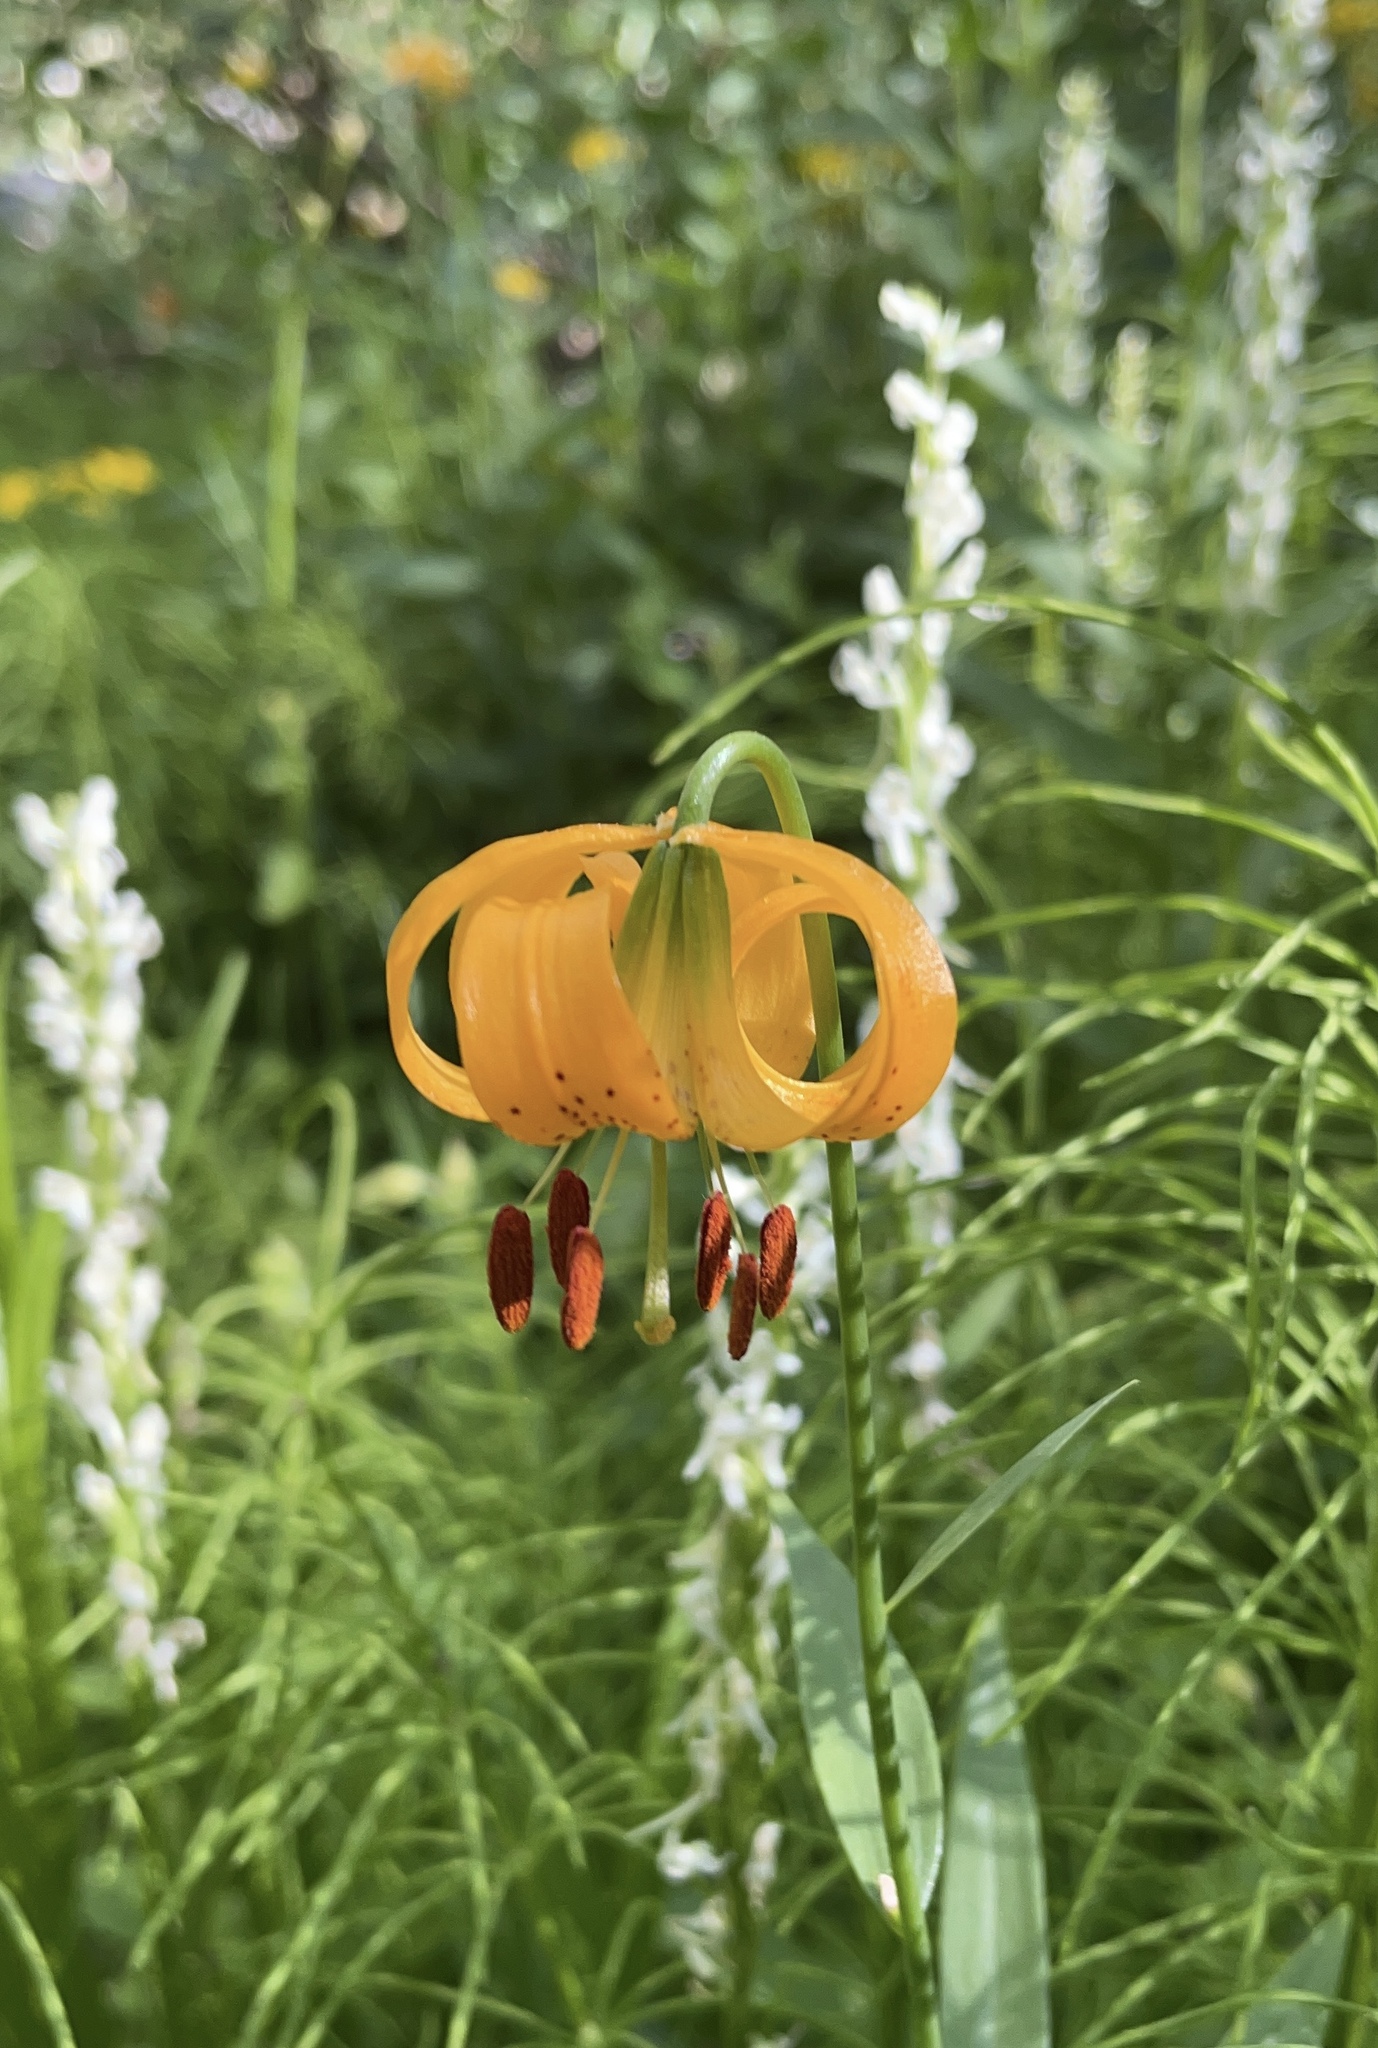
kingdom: Plantae
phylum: Tracheophyta
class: Liliopsida
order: Liliales
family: Liliaceae
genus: Lilium
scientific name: Lilium kelleyanum
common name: Kelley's lily
